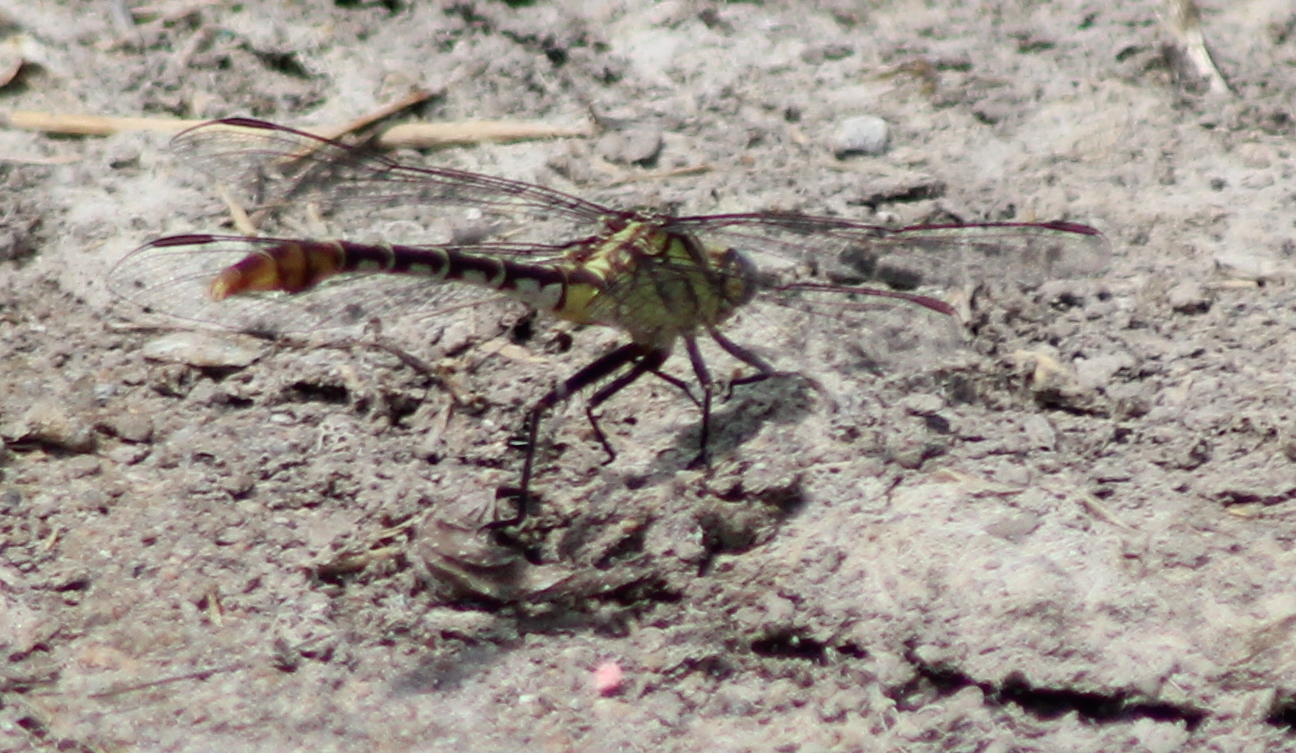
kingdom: Animalia
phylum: Arthropoda
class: Insecta
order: Odonata
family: Gomphidae
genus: Dromogomphus
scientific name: Dromogomphus spoliatus
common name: Flag-tailed spinyleg
